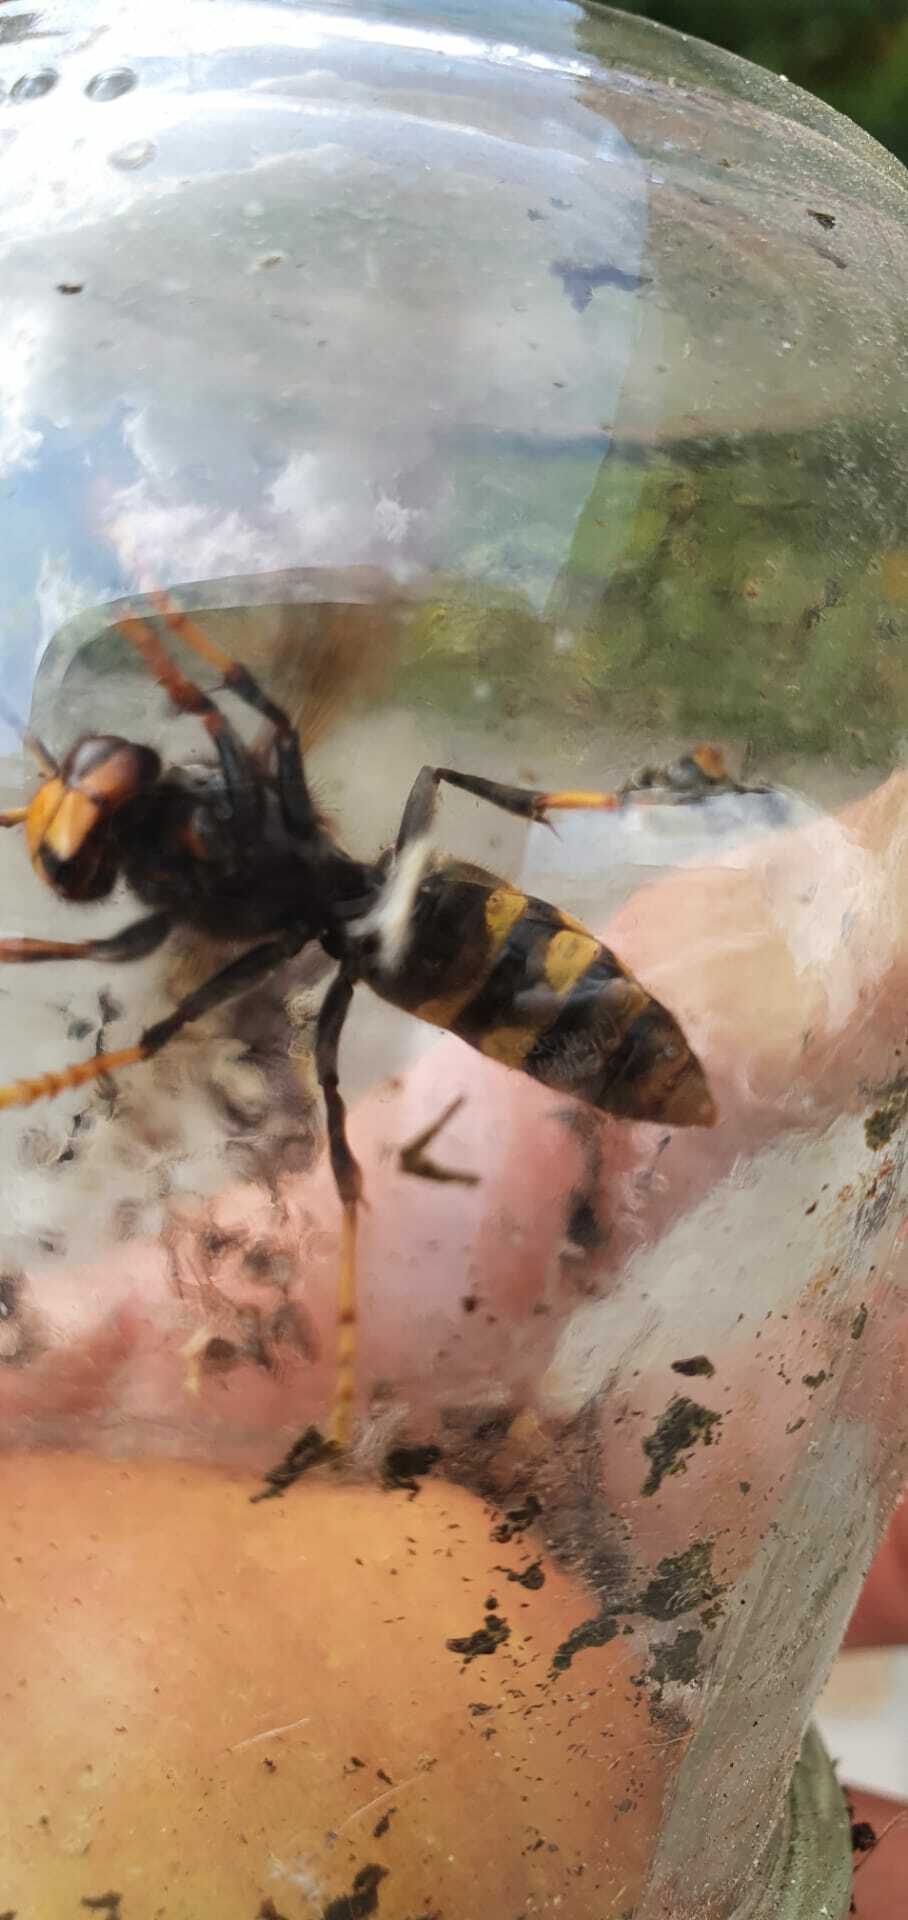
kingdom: Animalia
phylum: Arthropoda
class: Insecta
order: Hymenoptera
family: Vespidae
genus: Vespa
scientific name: Vespa velutina
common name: Asian hornet
